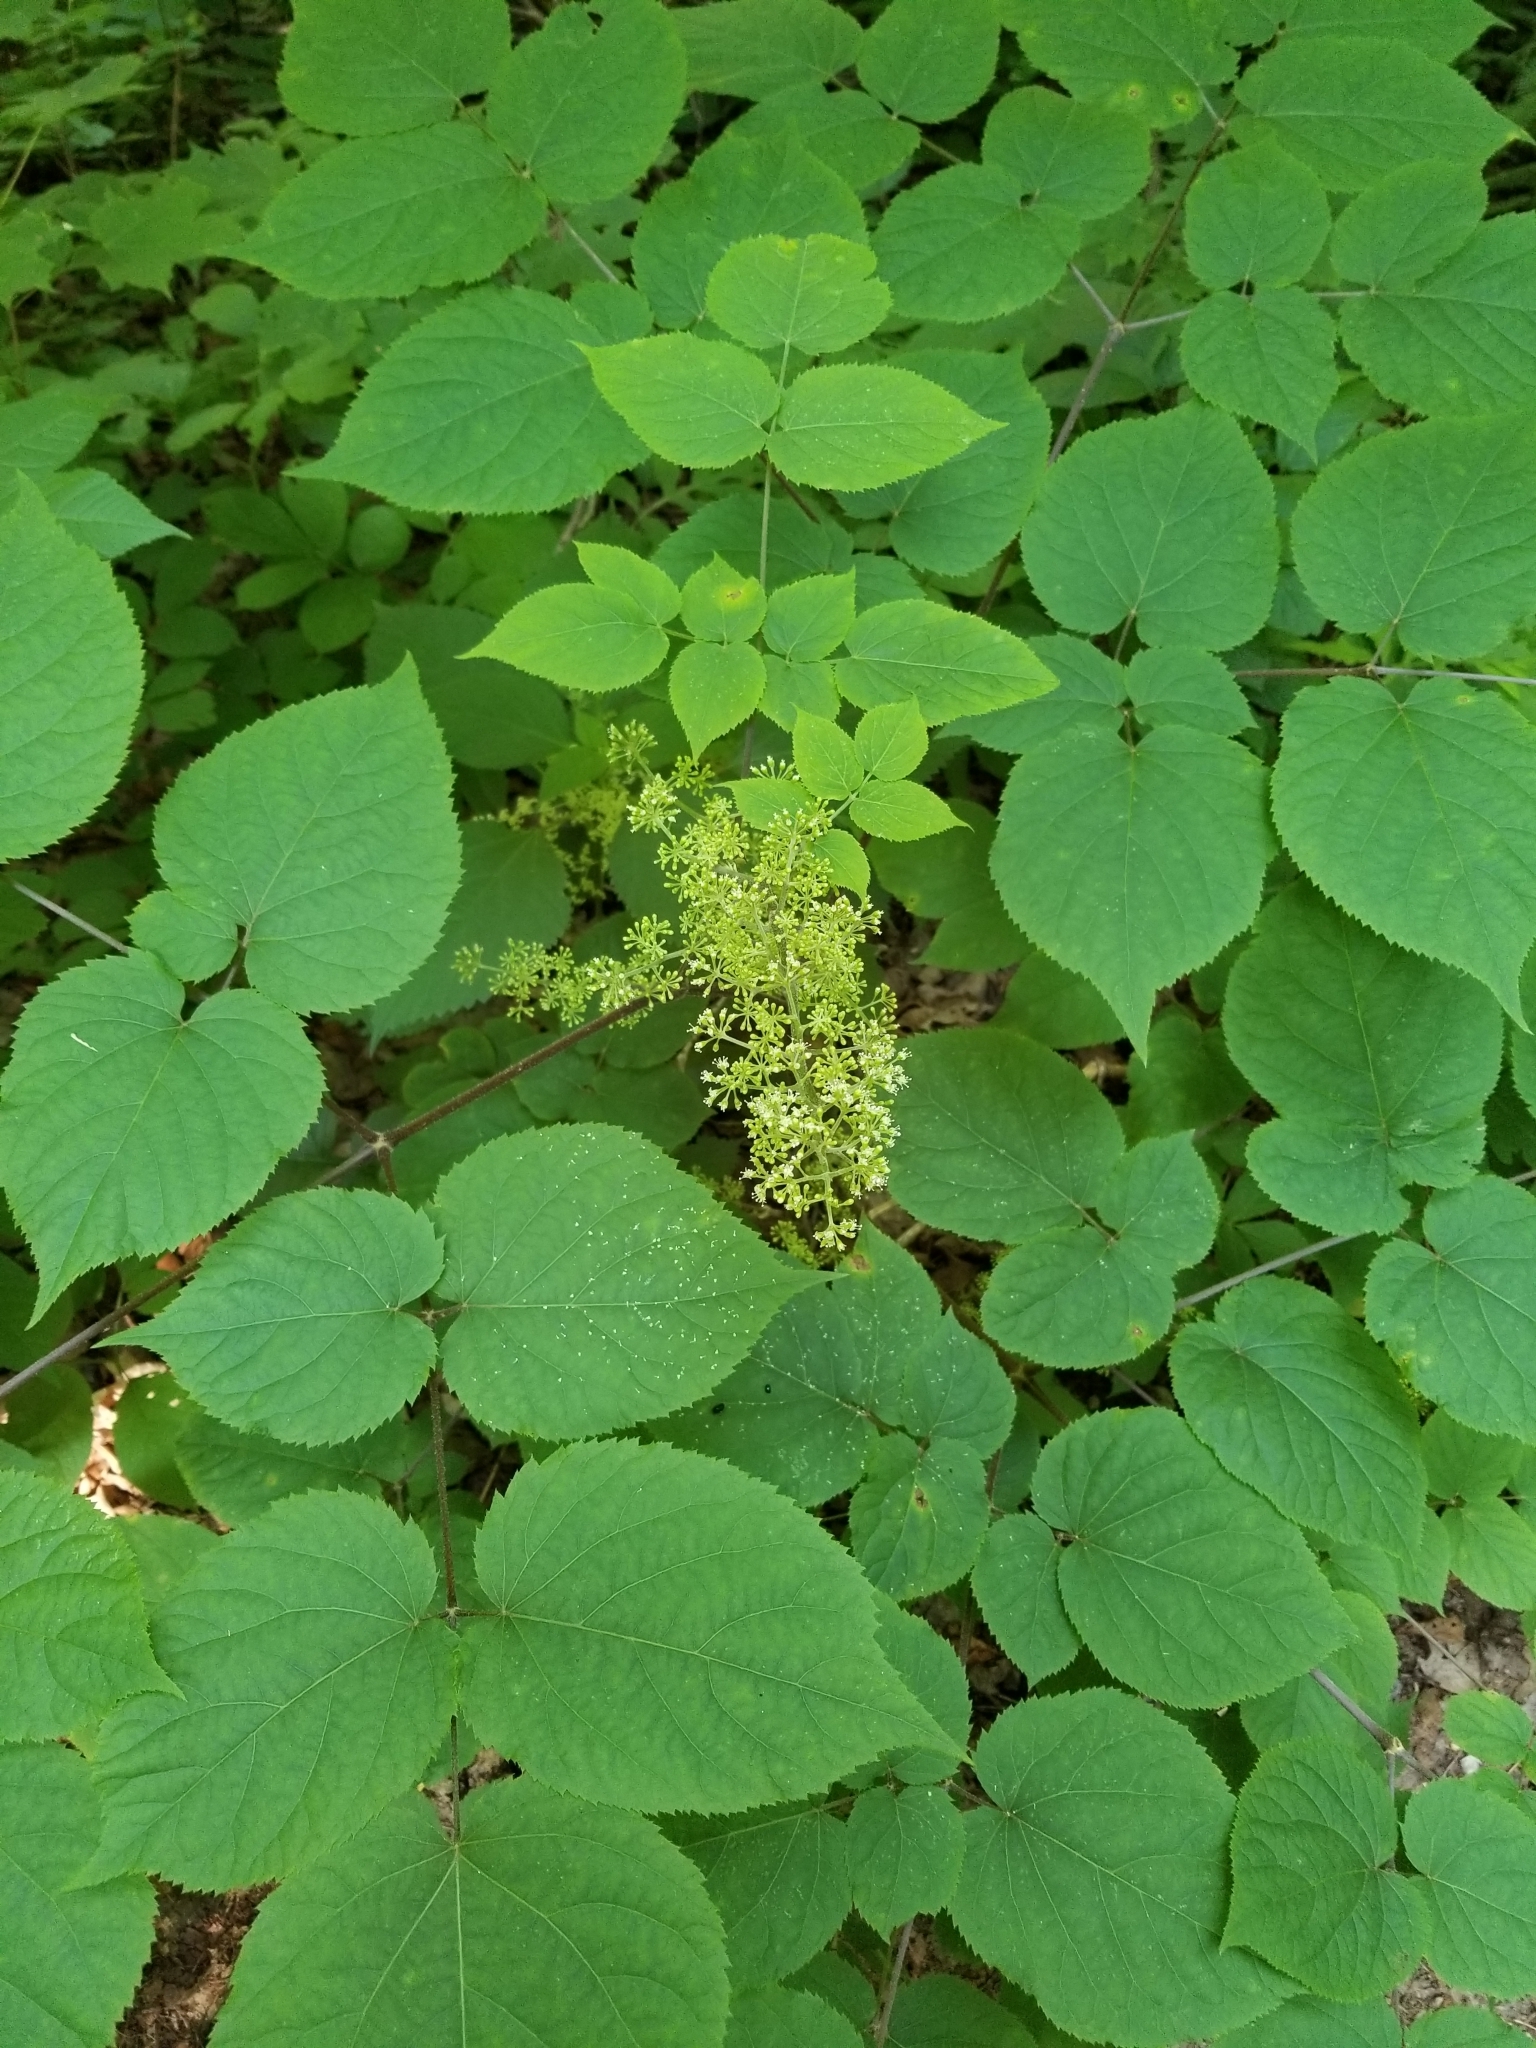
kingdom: Plantae
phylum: Tracheophyta
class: Magnoliopsida
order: Apiales
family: Araliaceae
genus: Aralia
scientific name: Aralia racemosa
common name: American-spikenard
